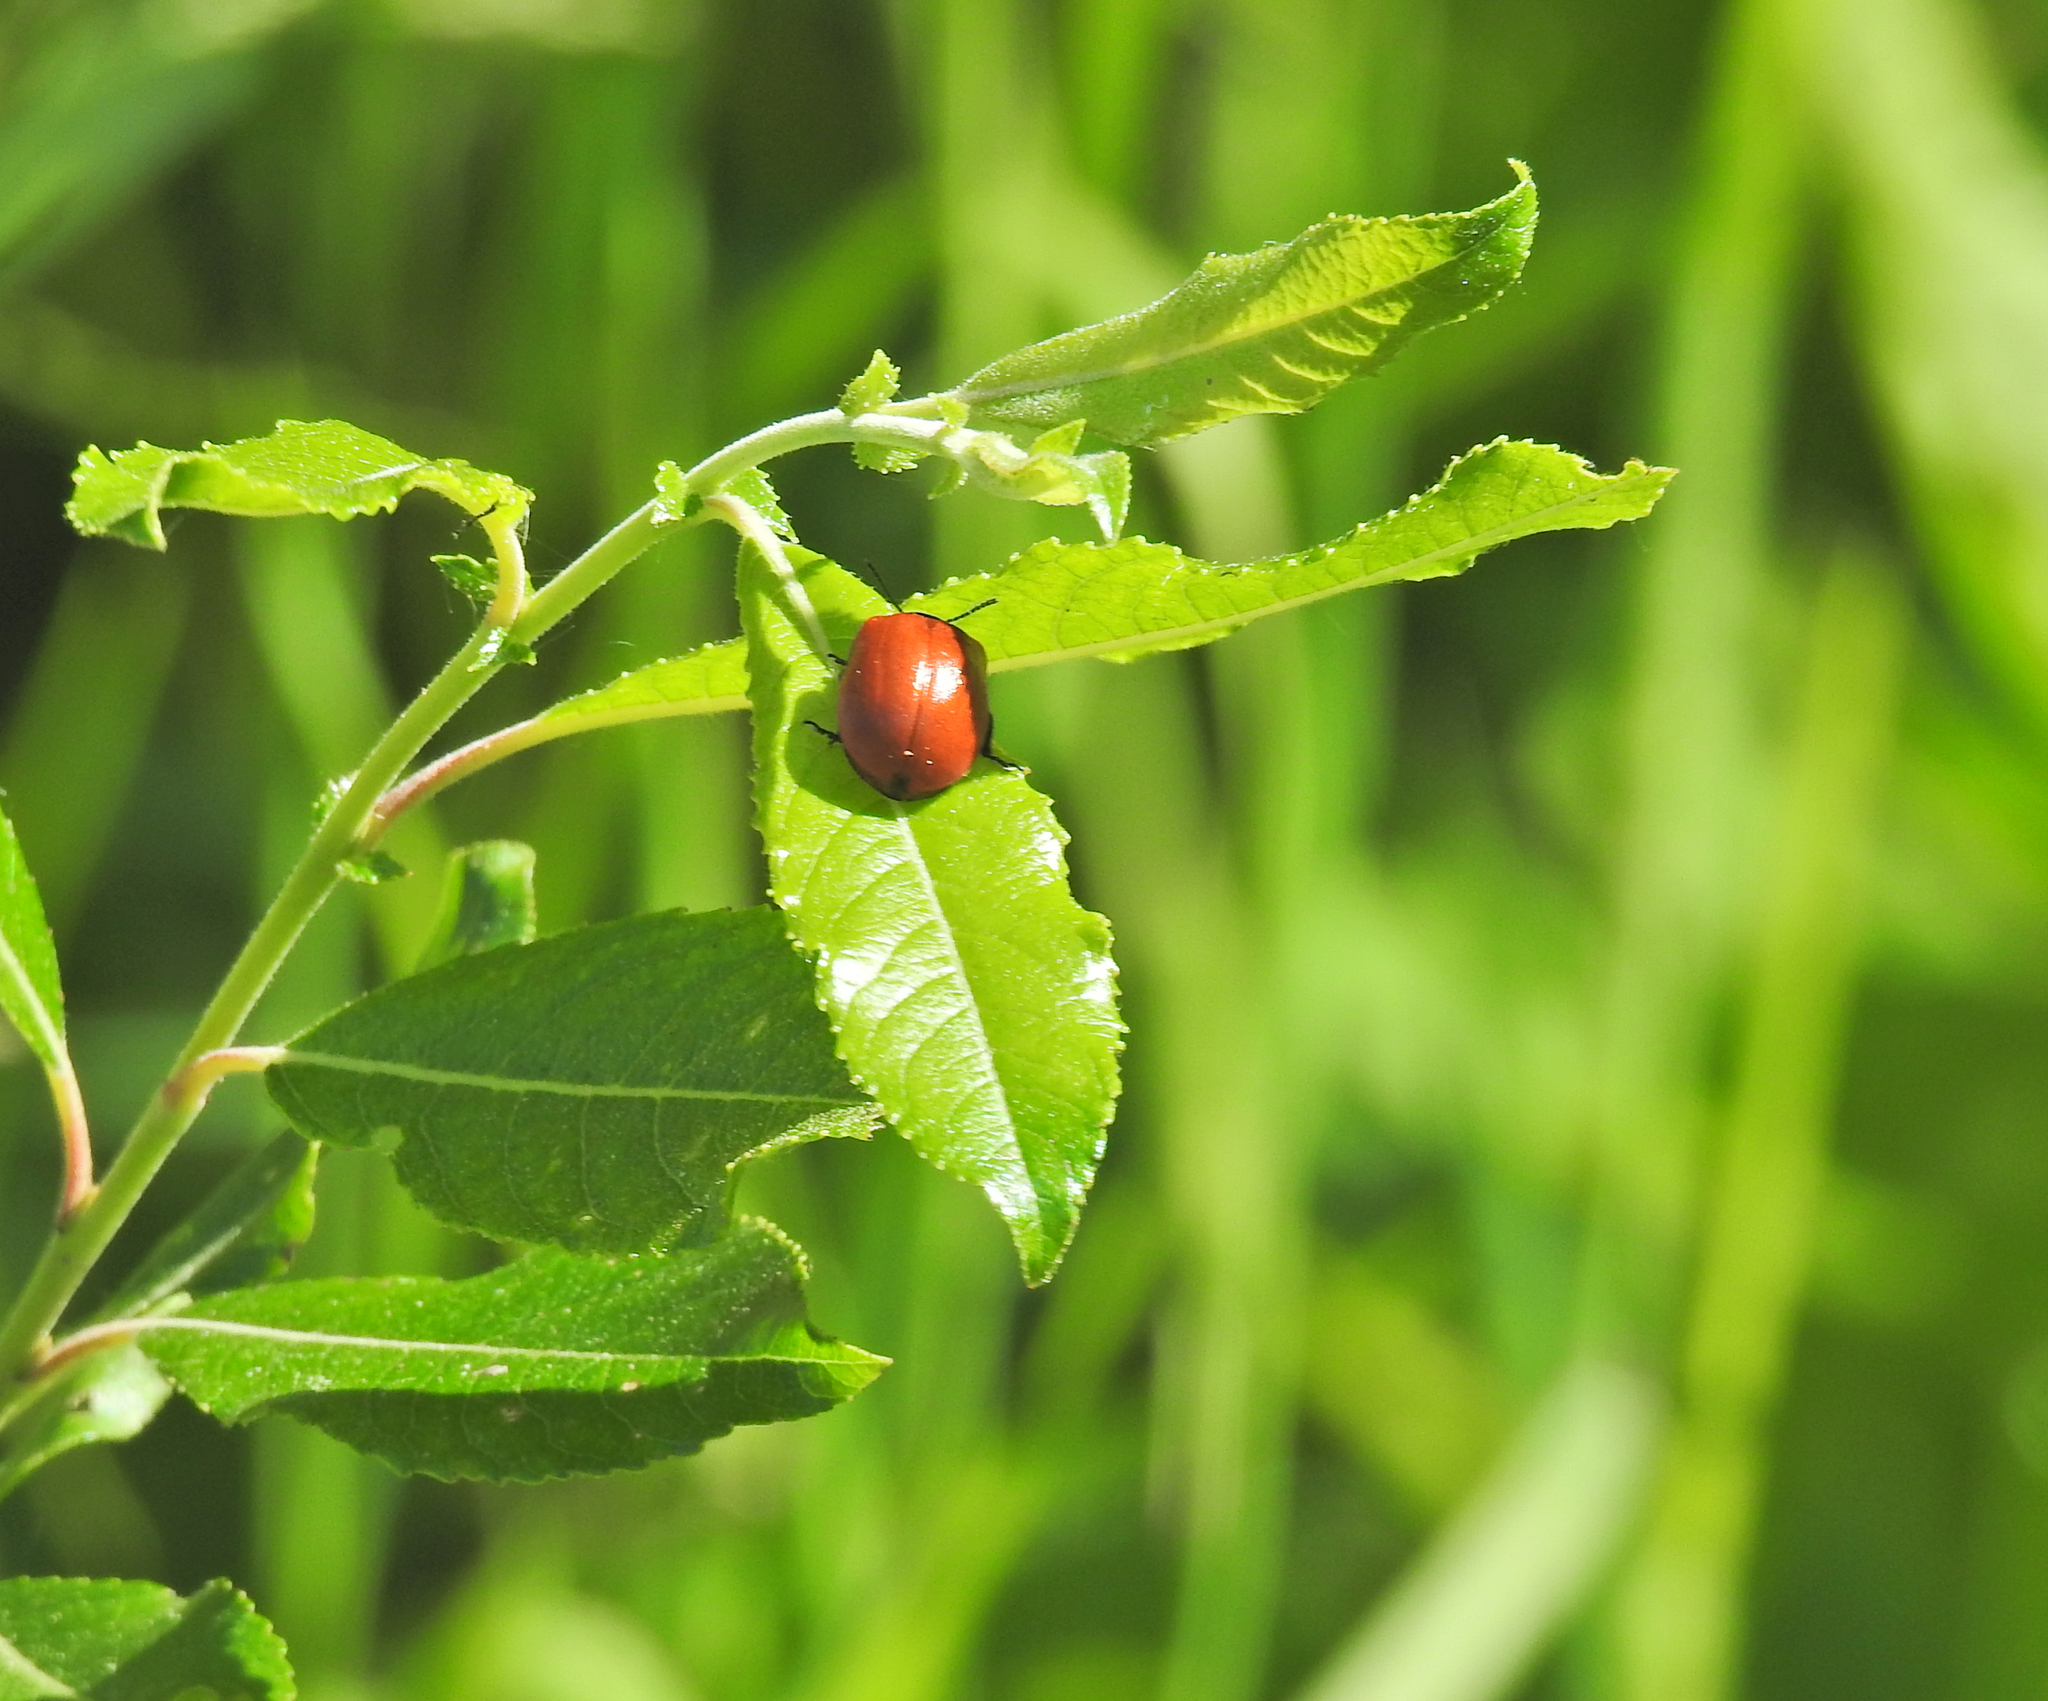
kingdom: Animalia
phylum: Arthropoda
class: Insecta
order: Coleoptera
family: Chrysomelidae
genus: Chrysomela
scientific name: Chrysomela populi
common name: Red poplar leaf beetle
